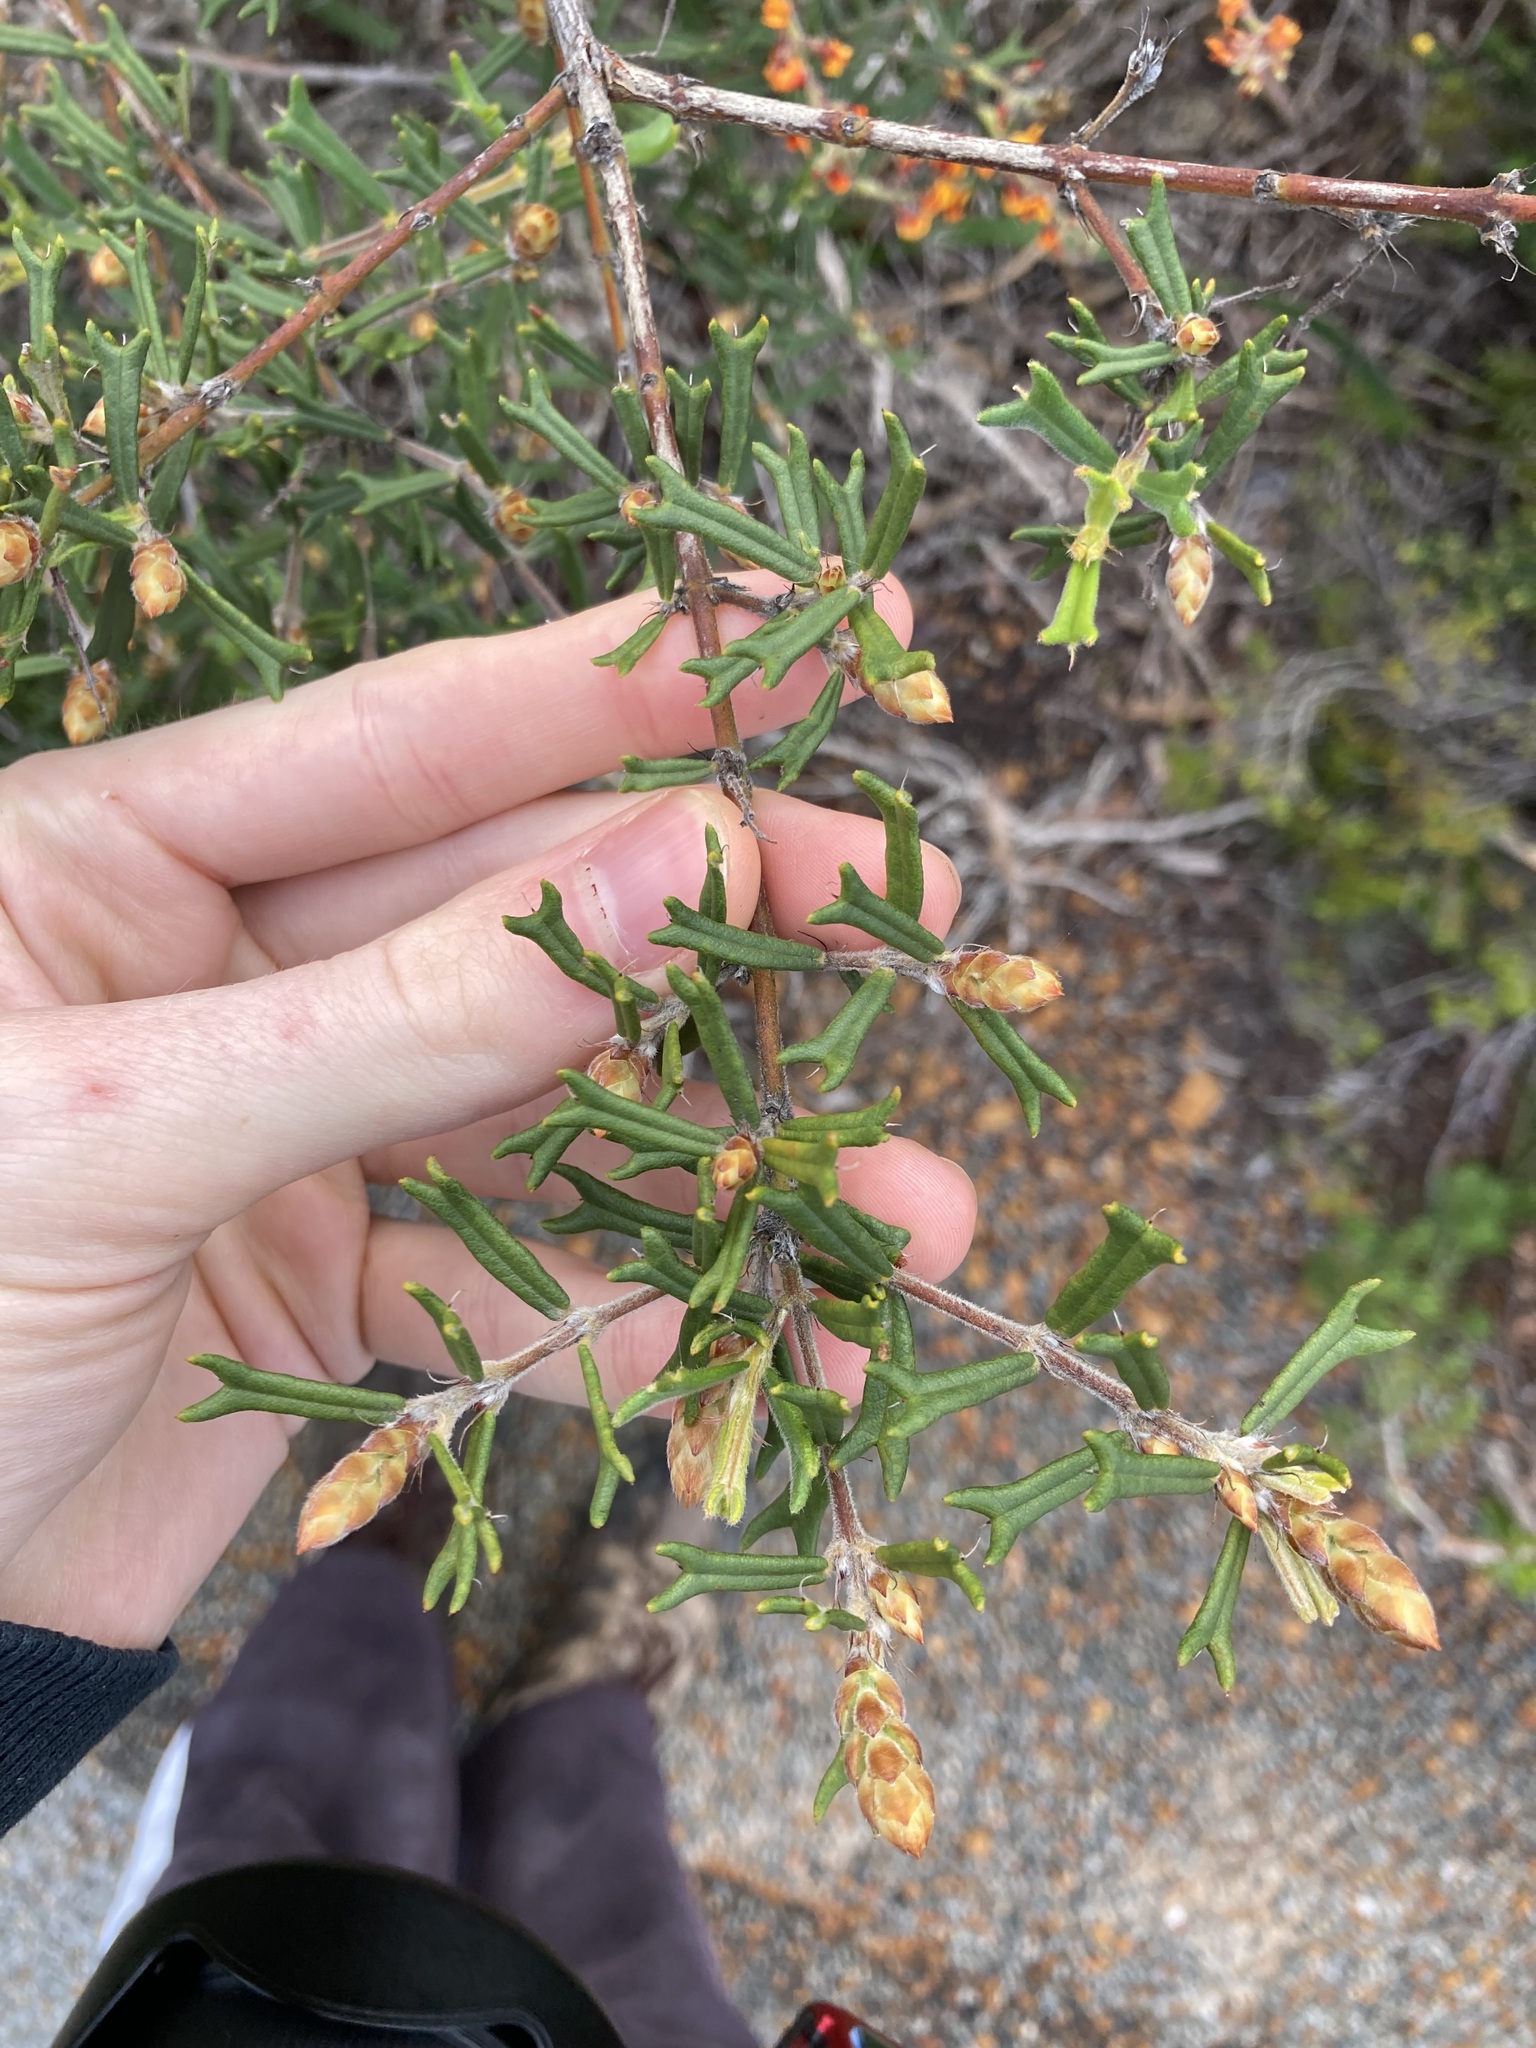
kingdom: Plantae
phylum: Tracheophyta
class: Magnoliopsida
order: Fabales
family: Fabaceae
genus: Gastrolobium
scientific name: Gastrolobium polystachyum
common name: Hill river poison
